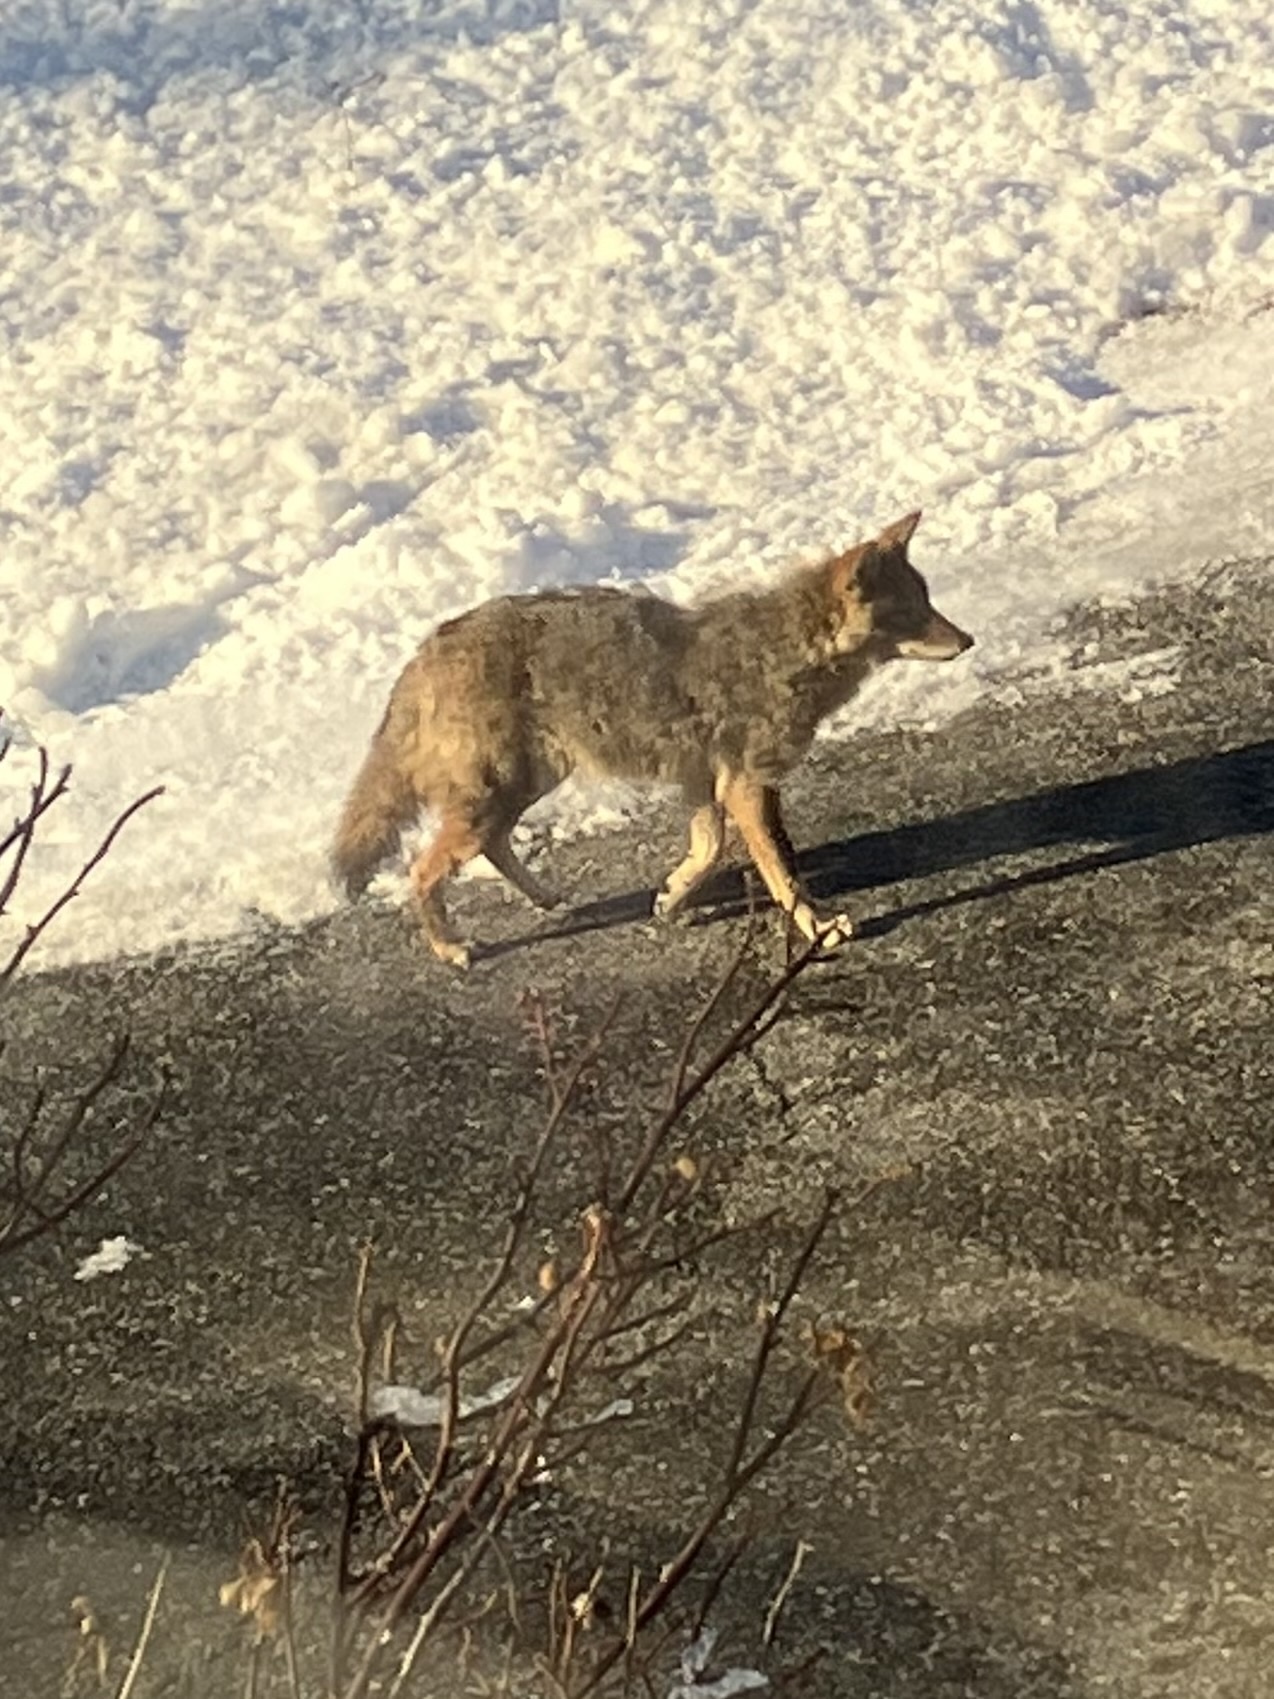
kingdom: Animalia
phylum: Chordata
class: Mammalia
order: Carnivora
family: Canidae
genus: Canis
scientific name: Canis latrans
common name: Coyote
